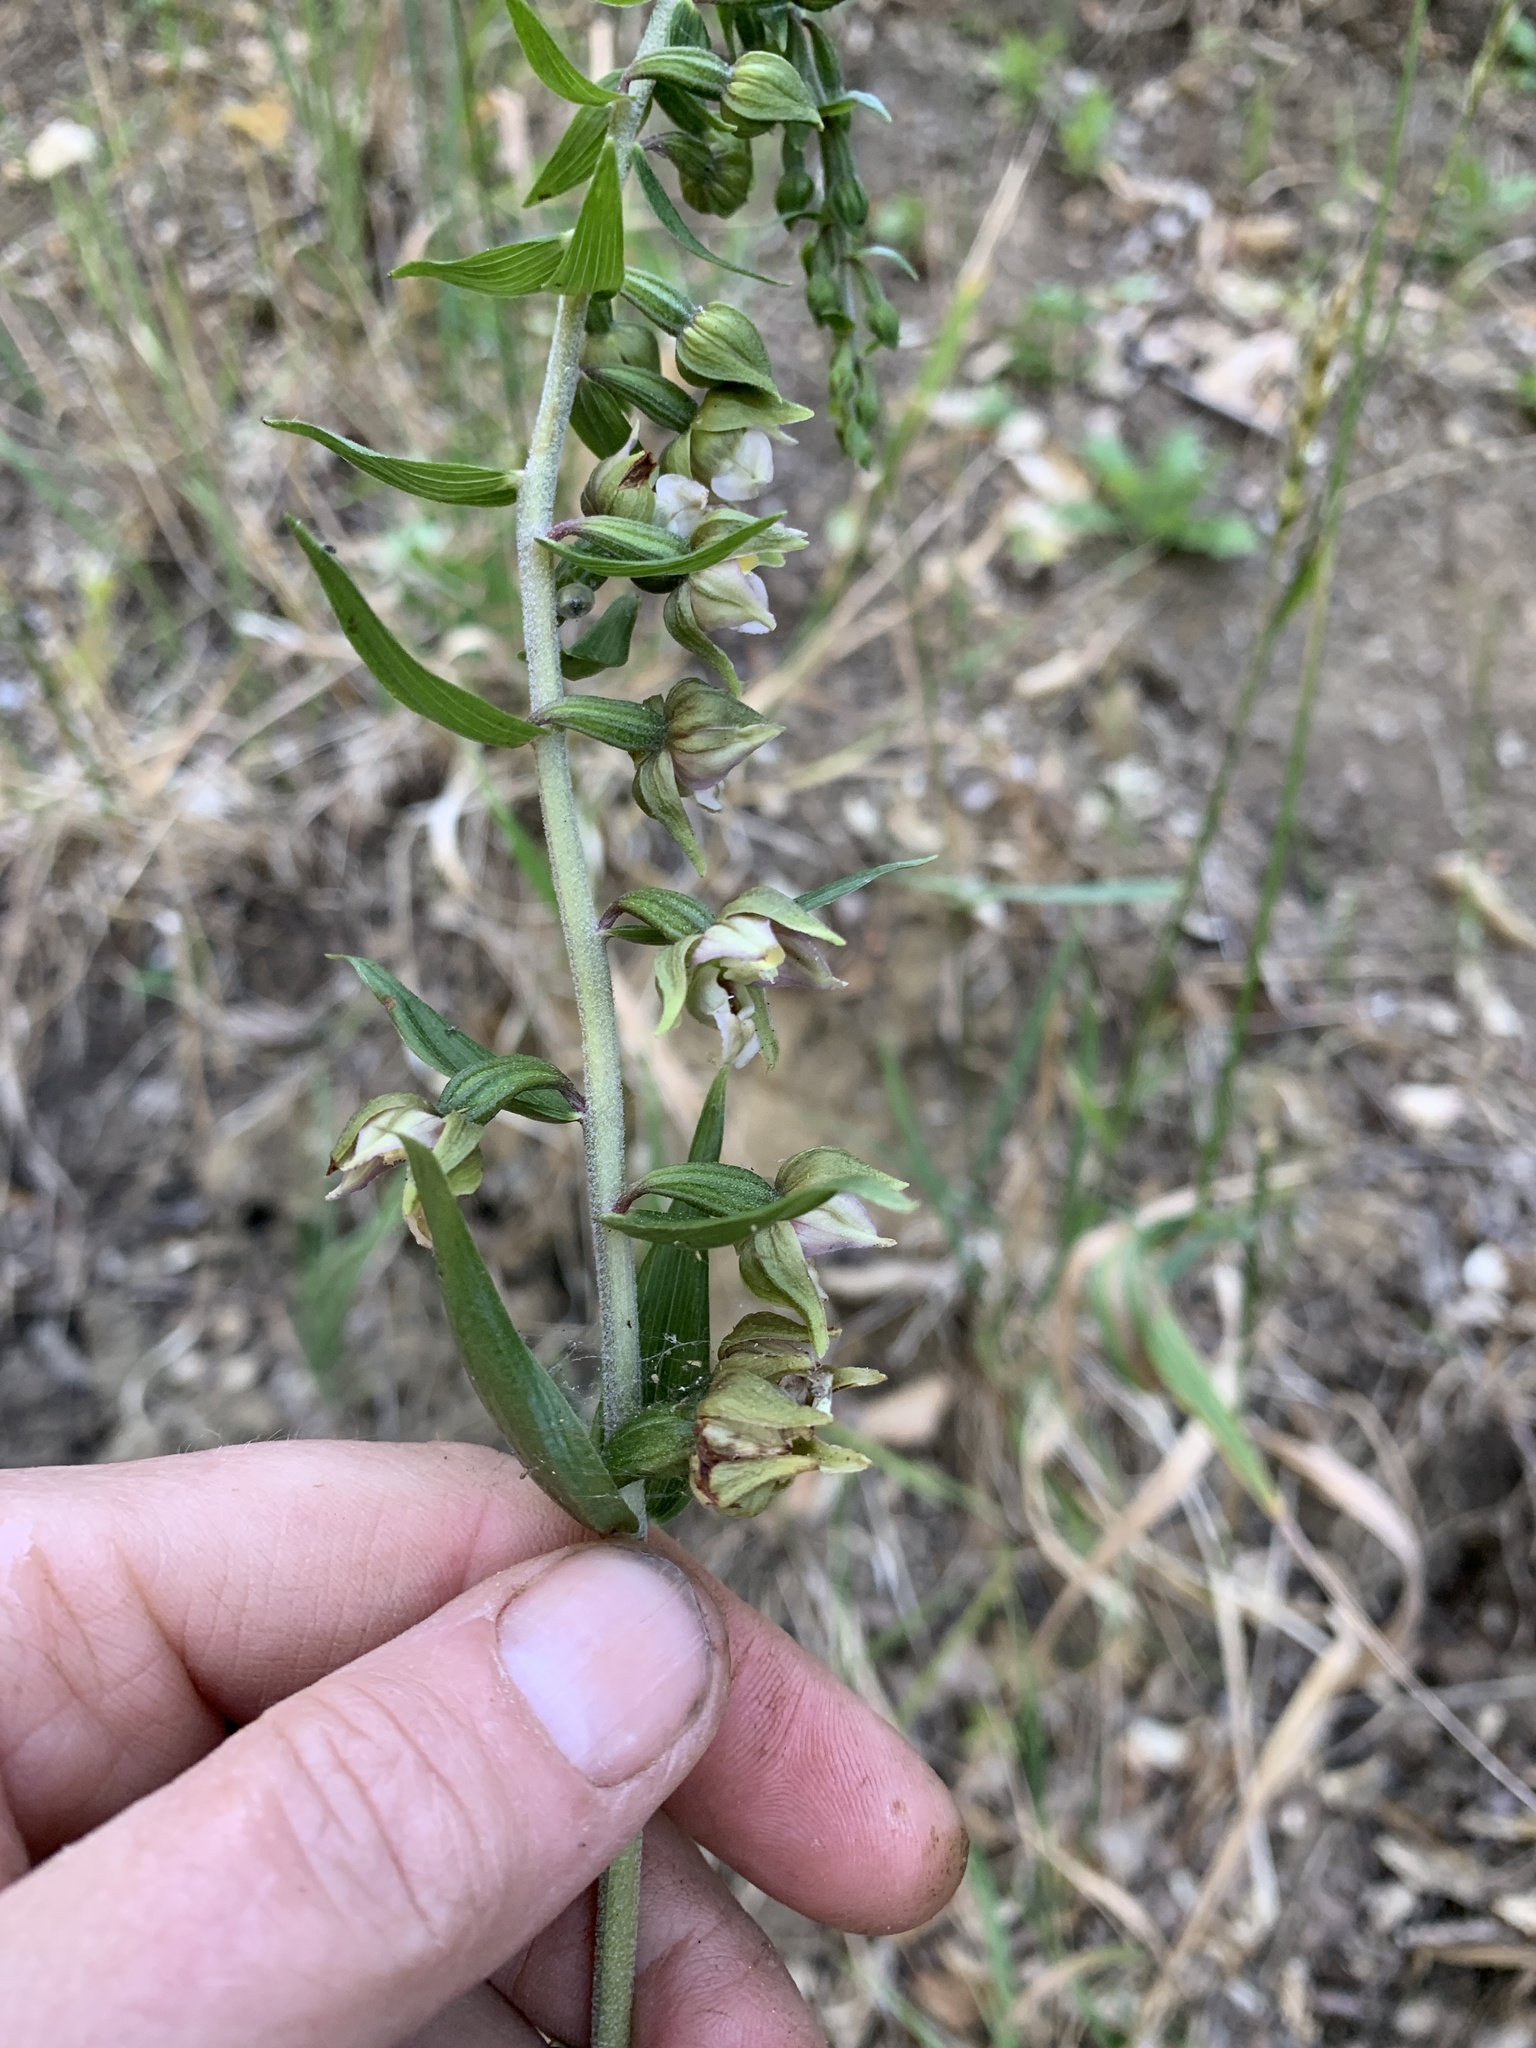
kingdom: Plantae
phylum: Tracheophyta
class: Liliopsida
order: Asparagales
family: Orchidaceae
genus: Epipactis
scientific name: Epipactis helleborine
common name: Broad-leaved helleborine
